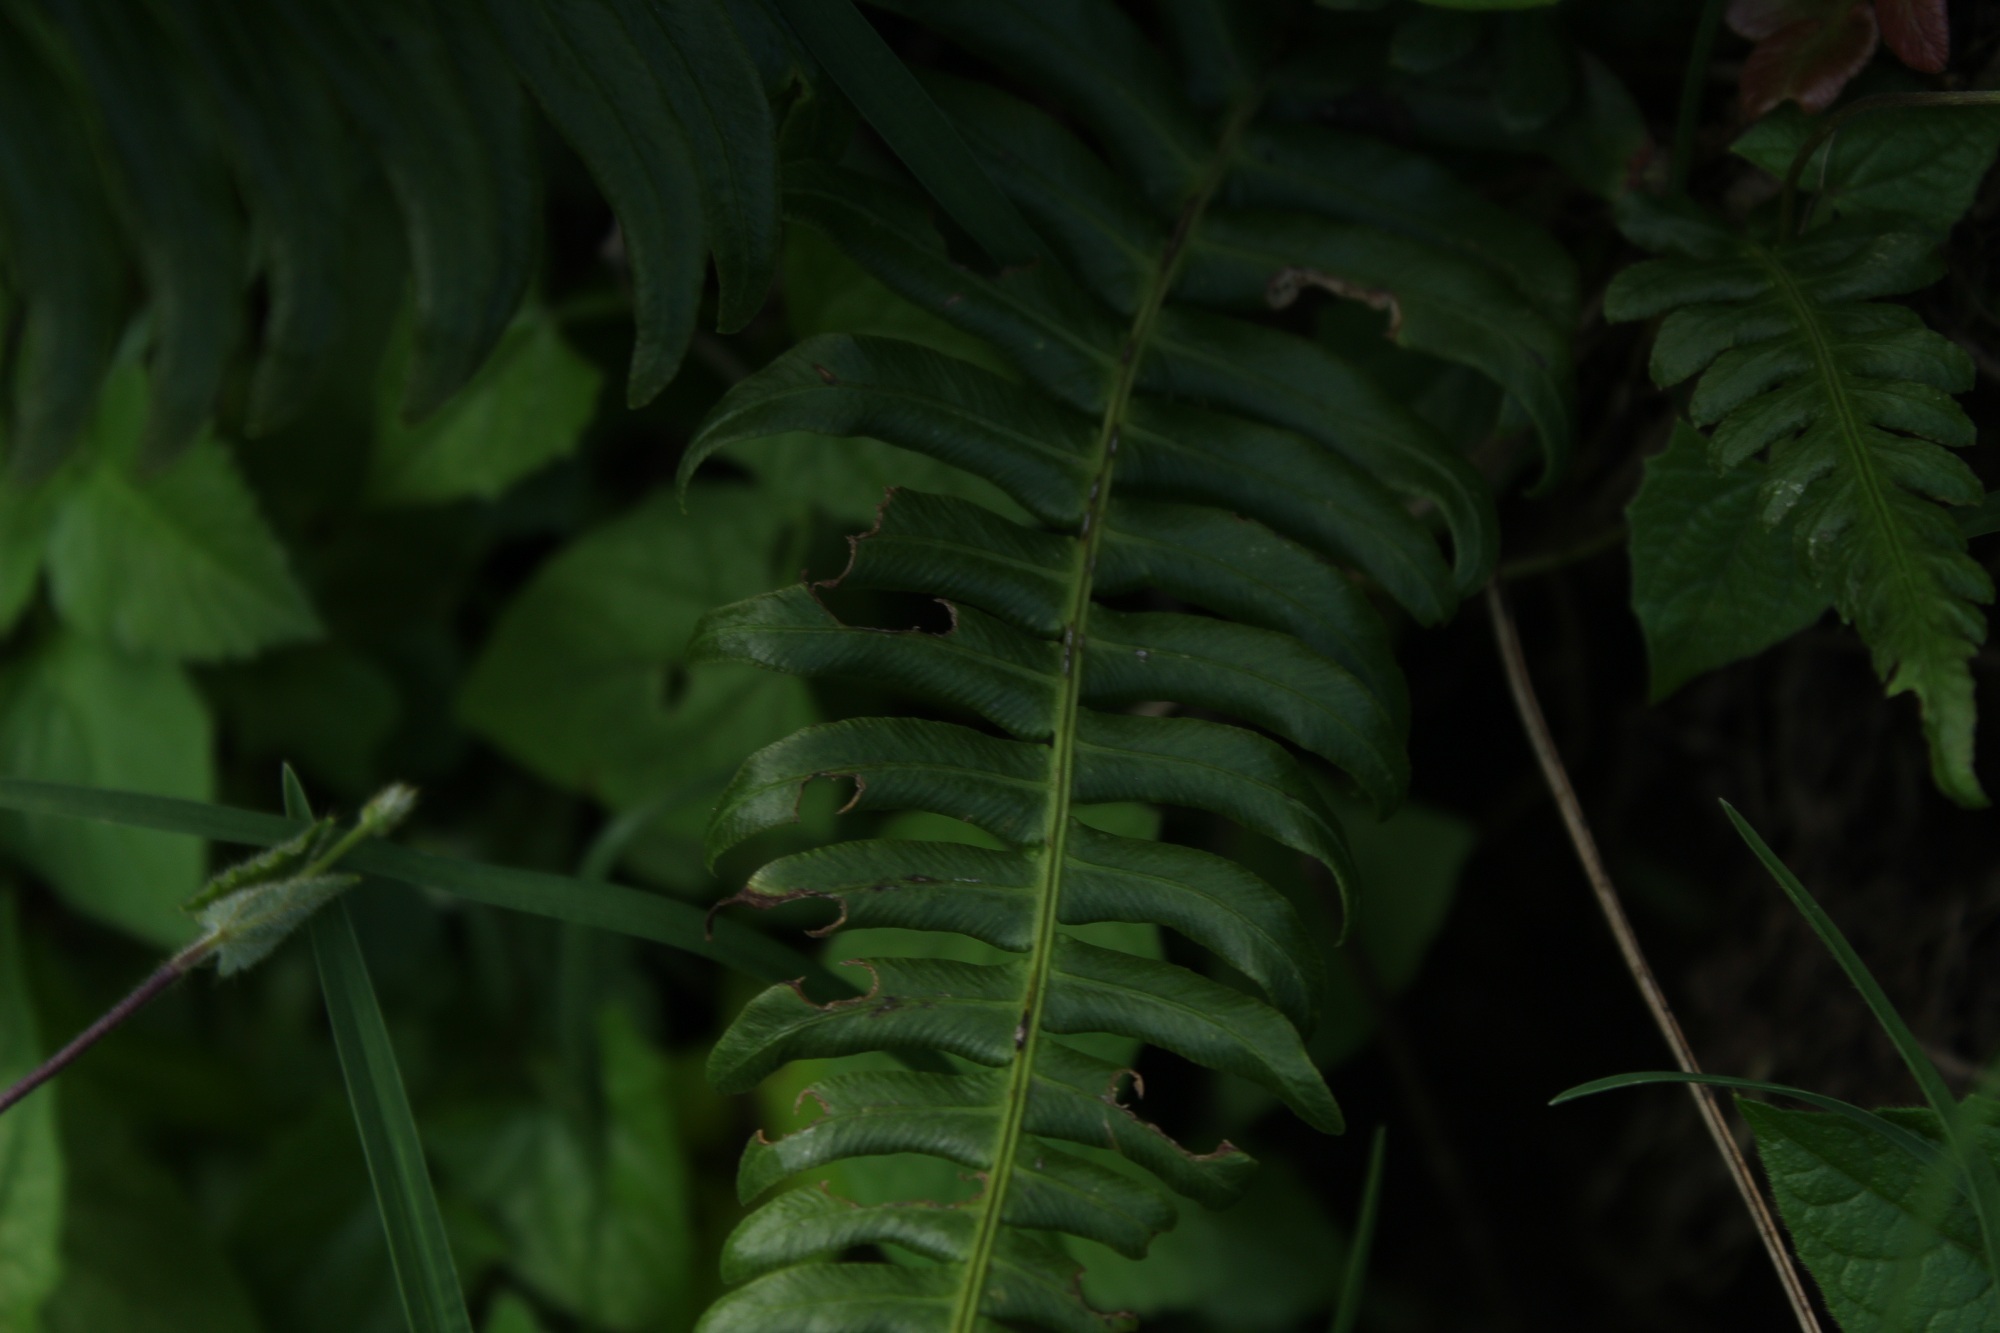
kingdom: Plantae
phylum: Tracheophyta
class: Polypodiopsida
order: Polypodiales
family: Blechnaceae
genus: Blechnum
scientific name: Blechnum occidentale
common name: Hammock fern
